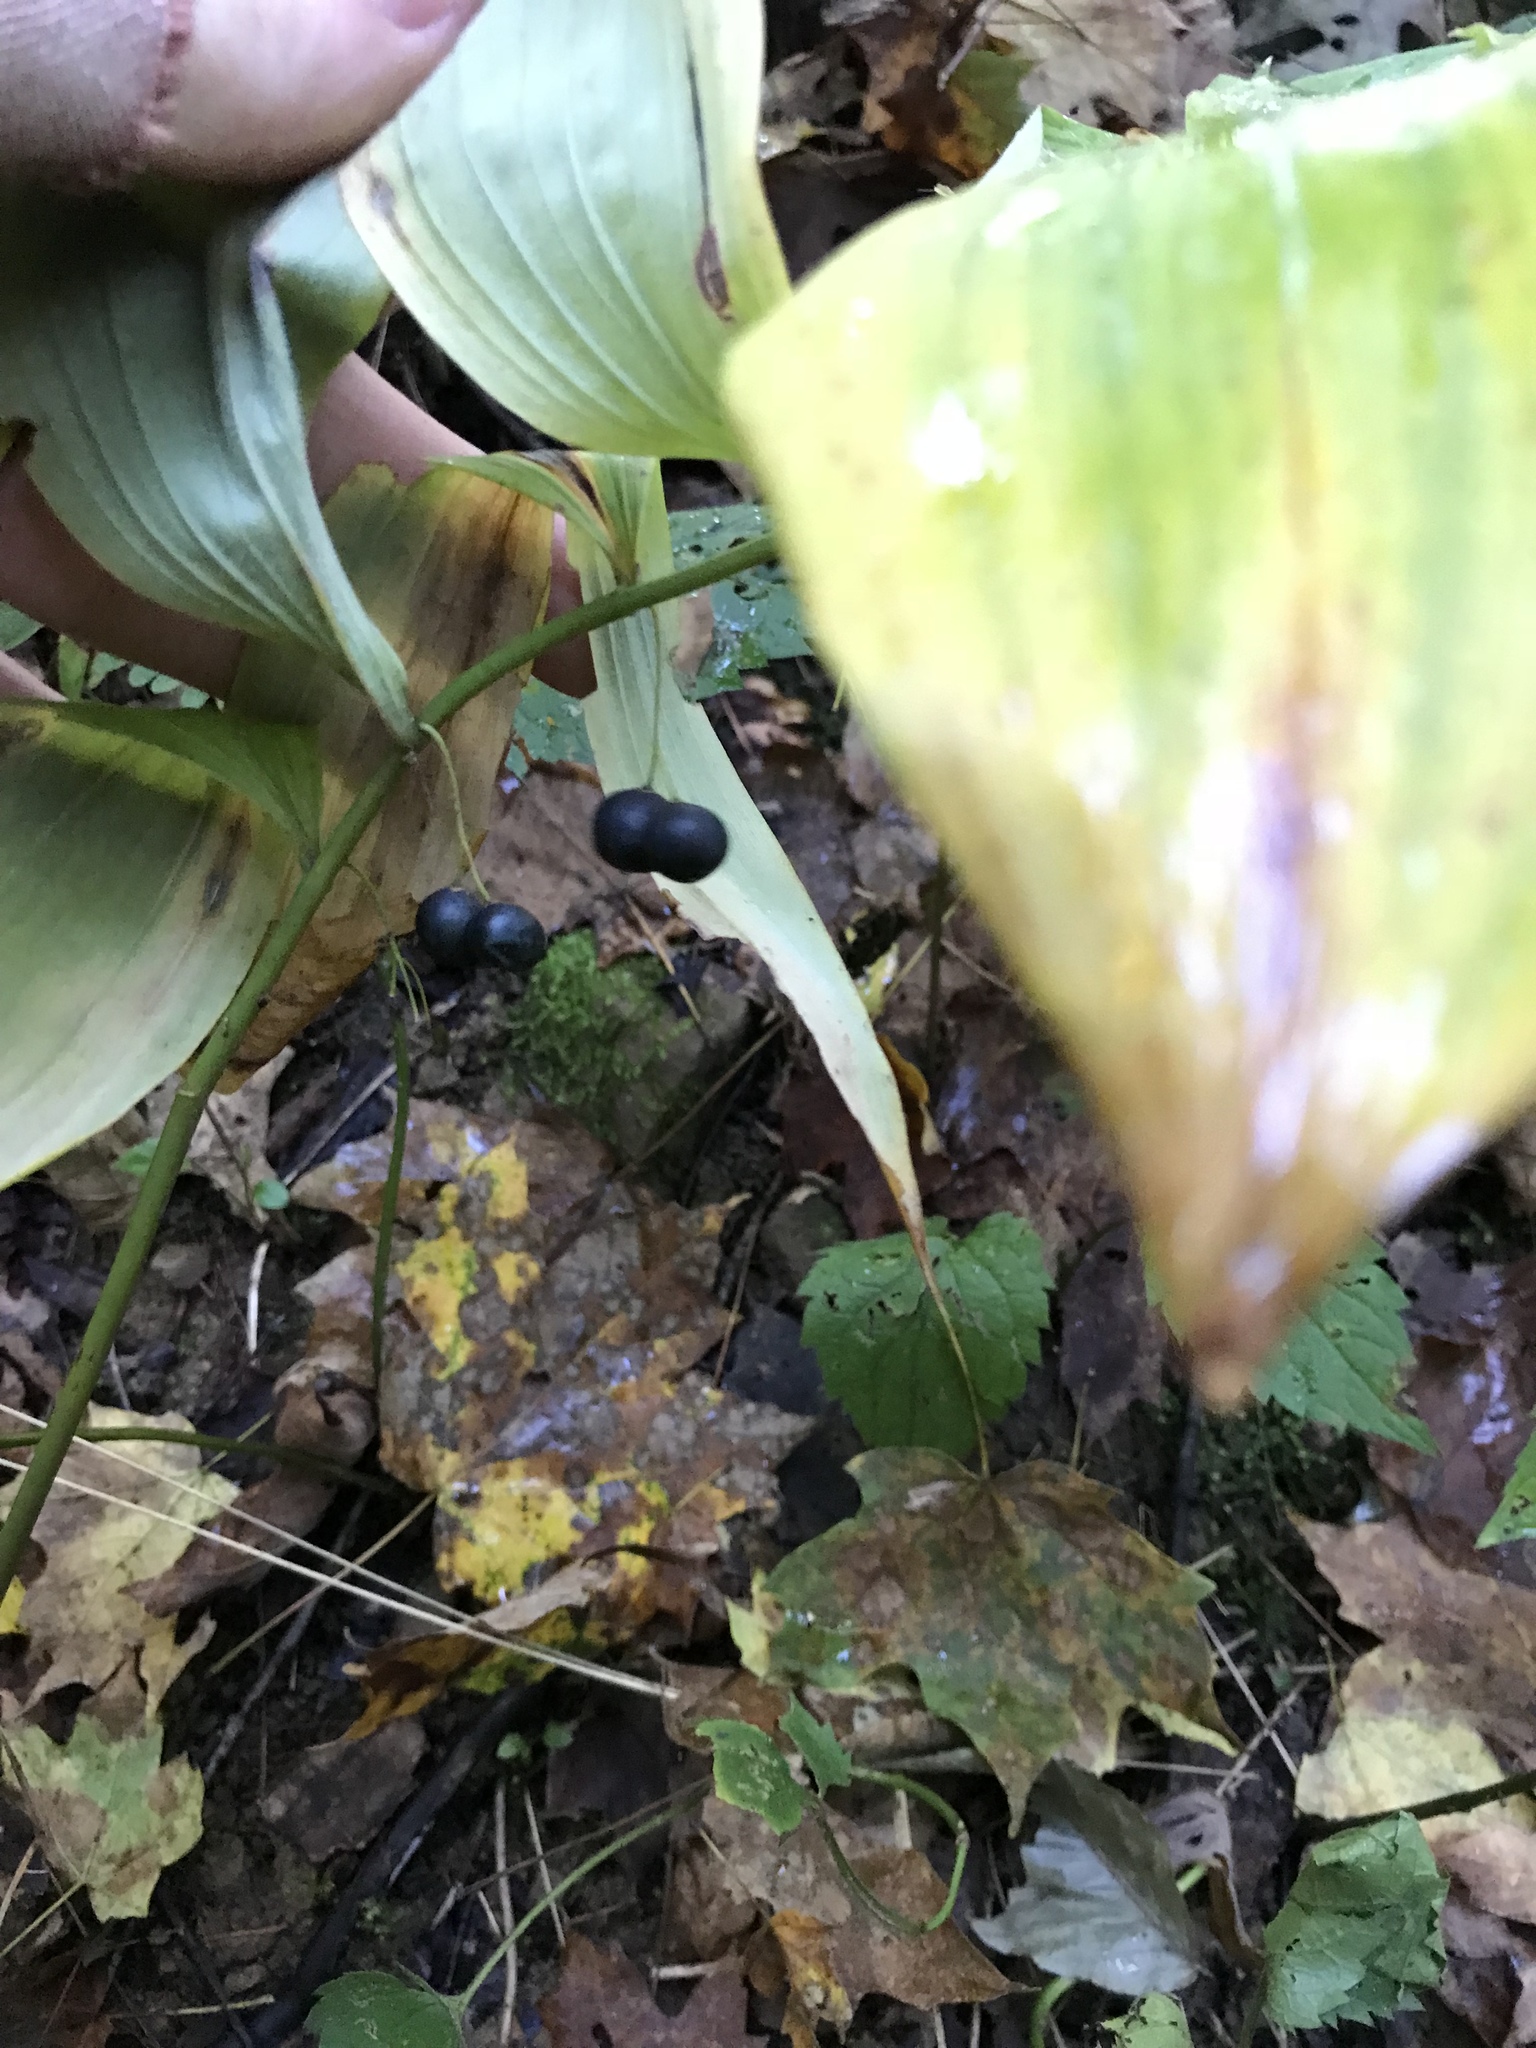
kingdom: Plantae
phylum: Tracheophyta
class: Liliopsida
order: Asparagales
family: Asparagaceae
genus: Polygonatum
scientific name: Polygonatum pubescens
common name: Downy solomon's seal
